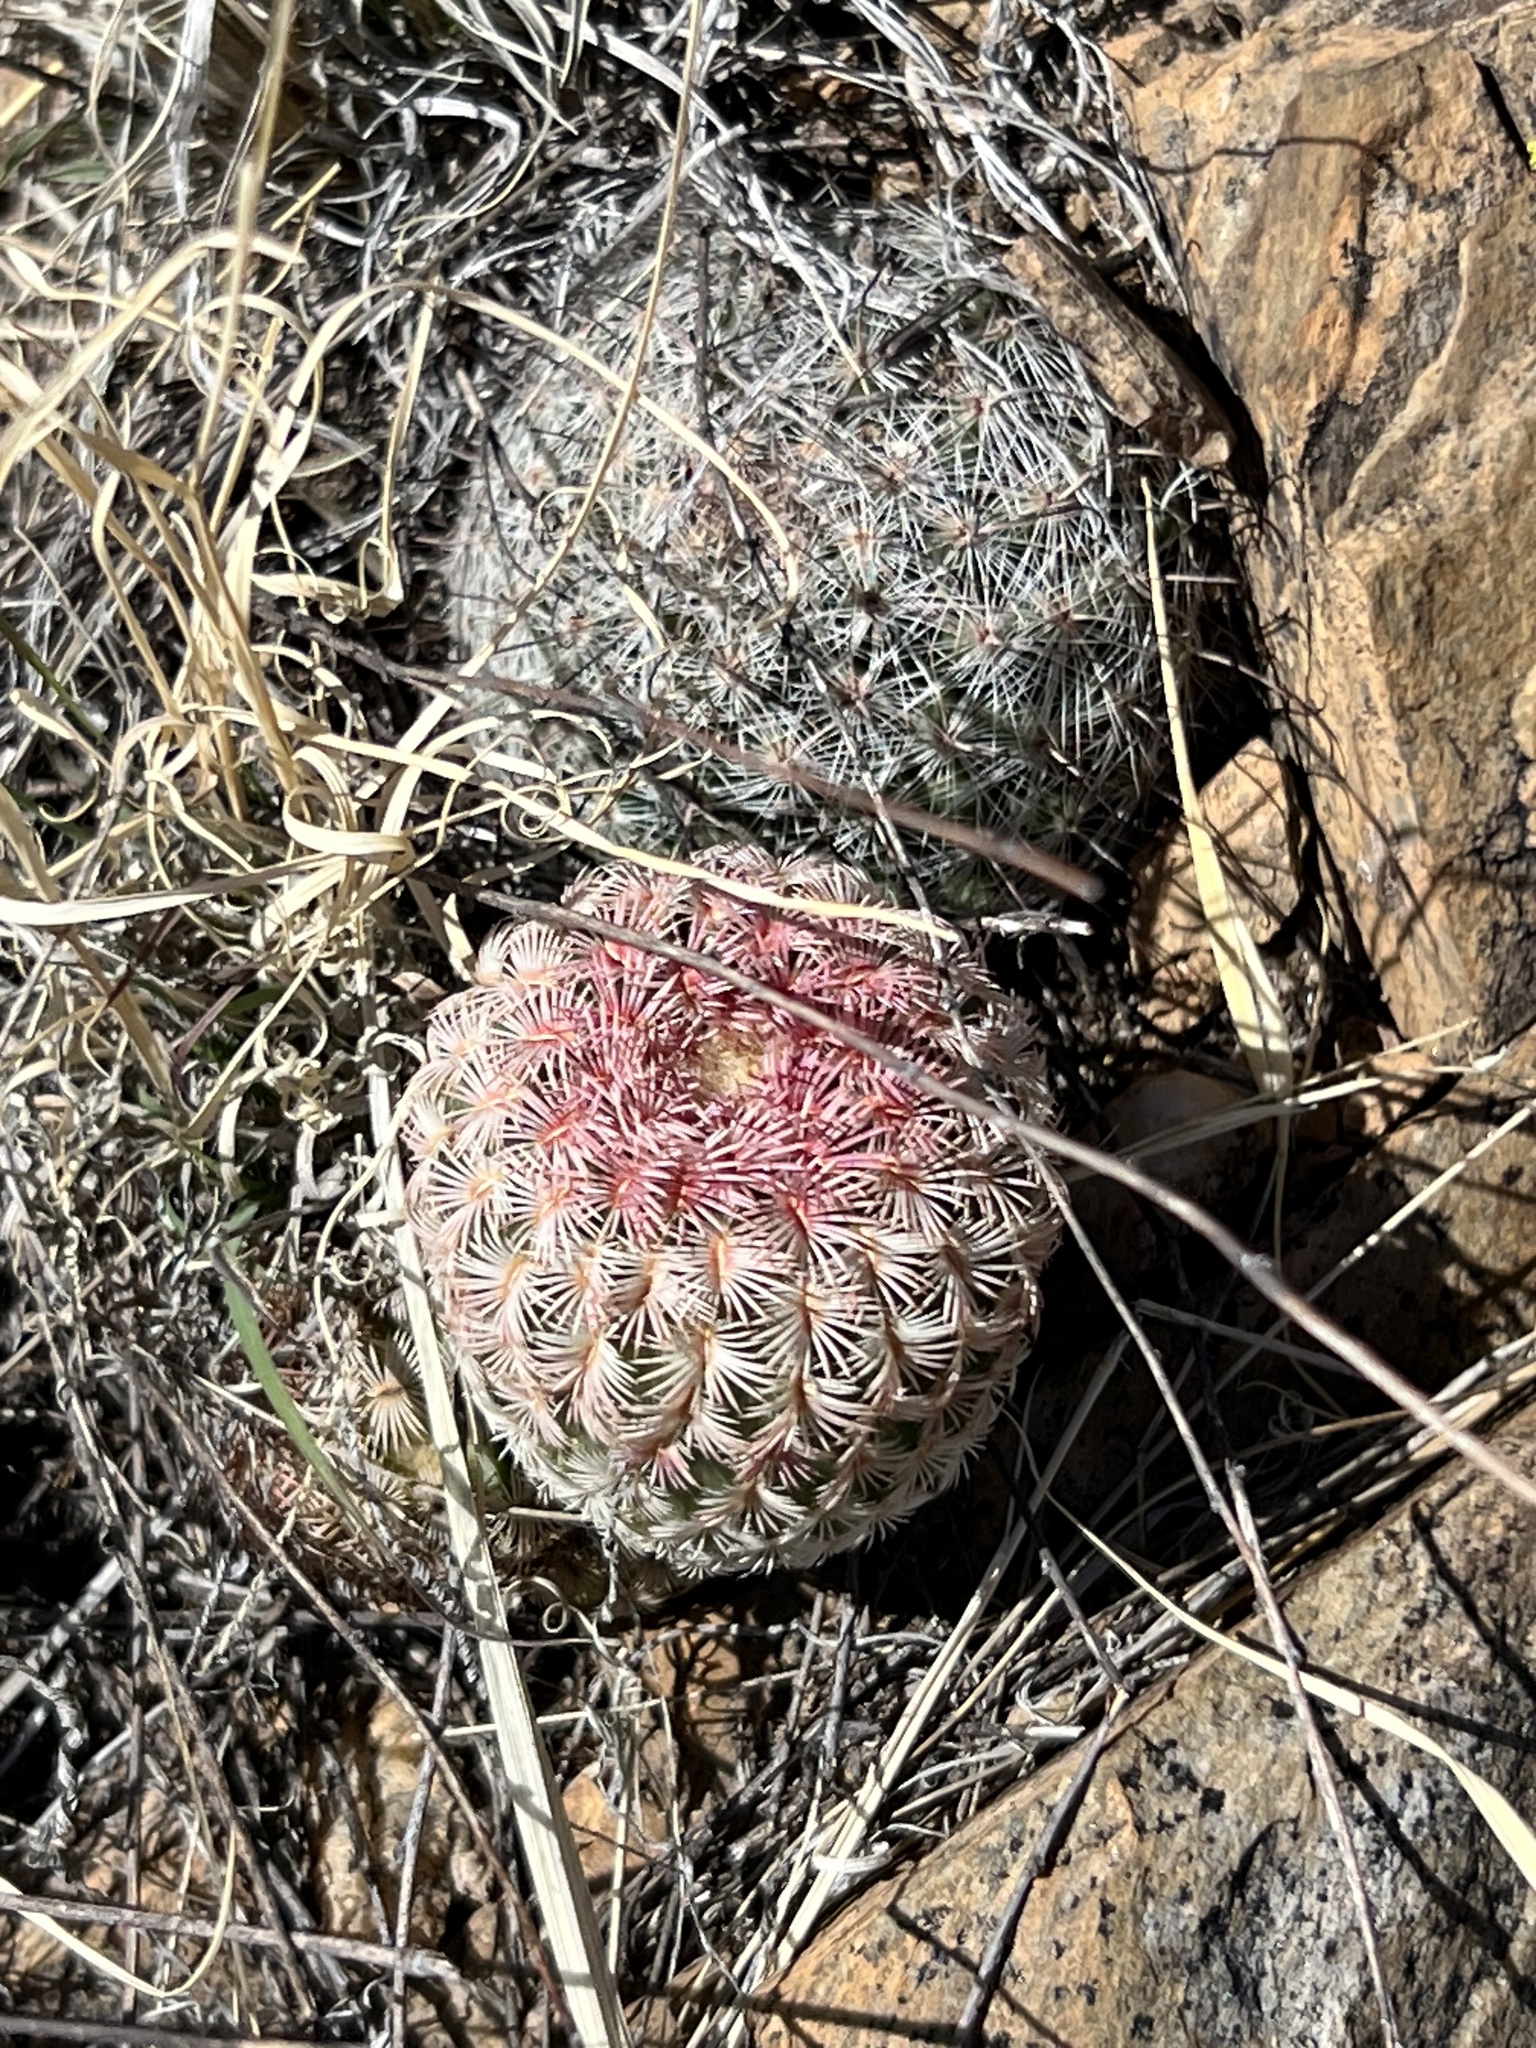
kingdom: Plantae
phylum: Tracheophyta
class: Magnoliopsida
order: Caryophyllales
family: Cactaceae
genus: Echinocereus
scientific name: Echinocereus rigidissimus
